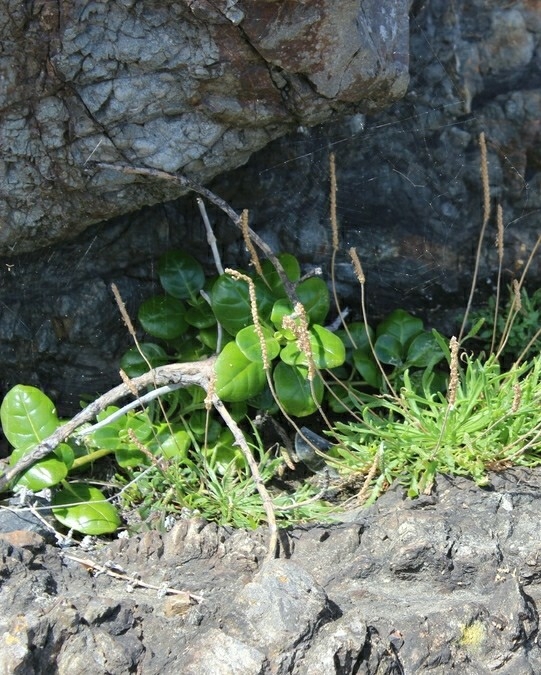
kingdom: Plantae
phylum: Tracheophyta
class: Magnoliopsida
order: Gentianales
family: Rubiaceae
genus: Coprosma
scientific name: Coprosma repens
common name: Tree bedstraw
